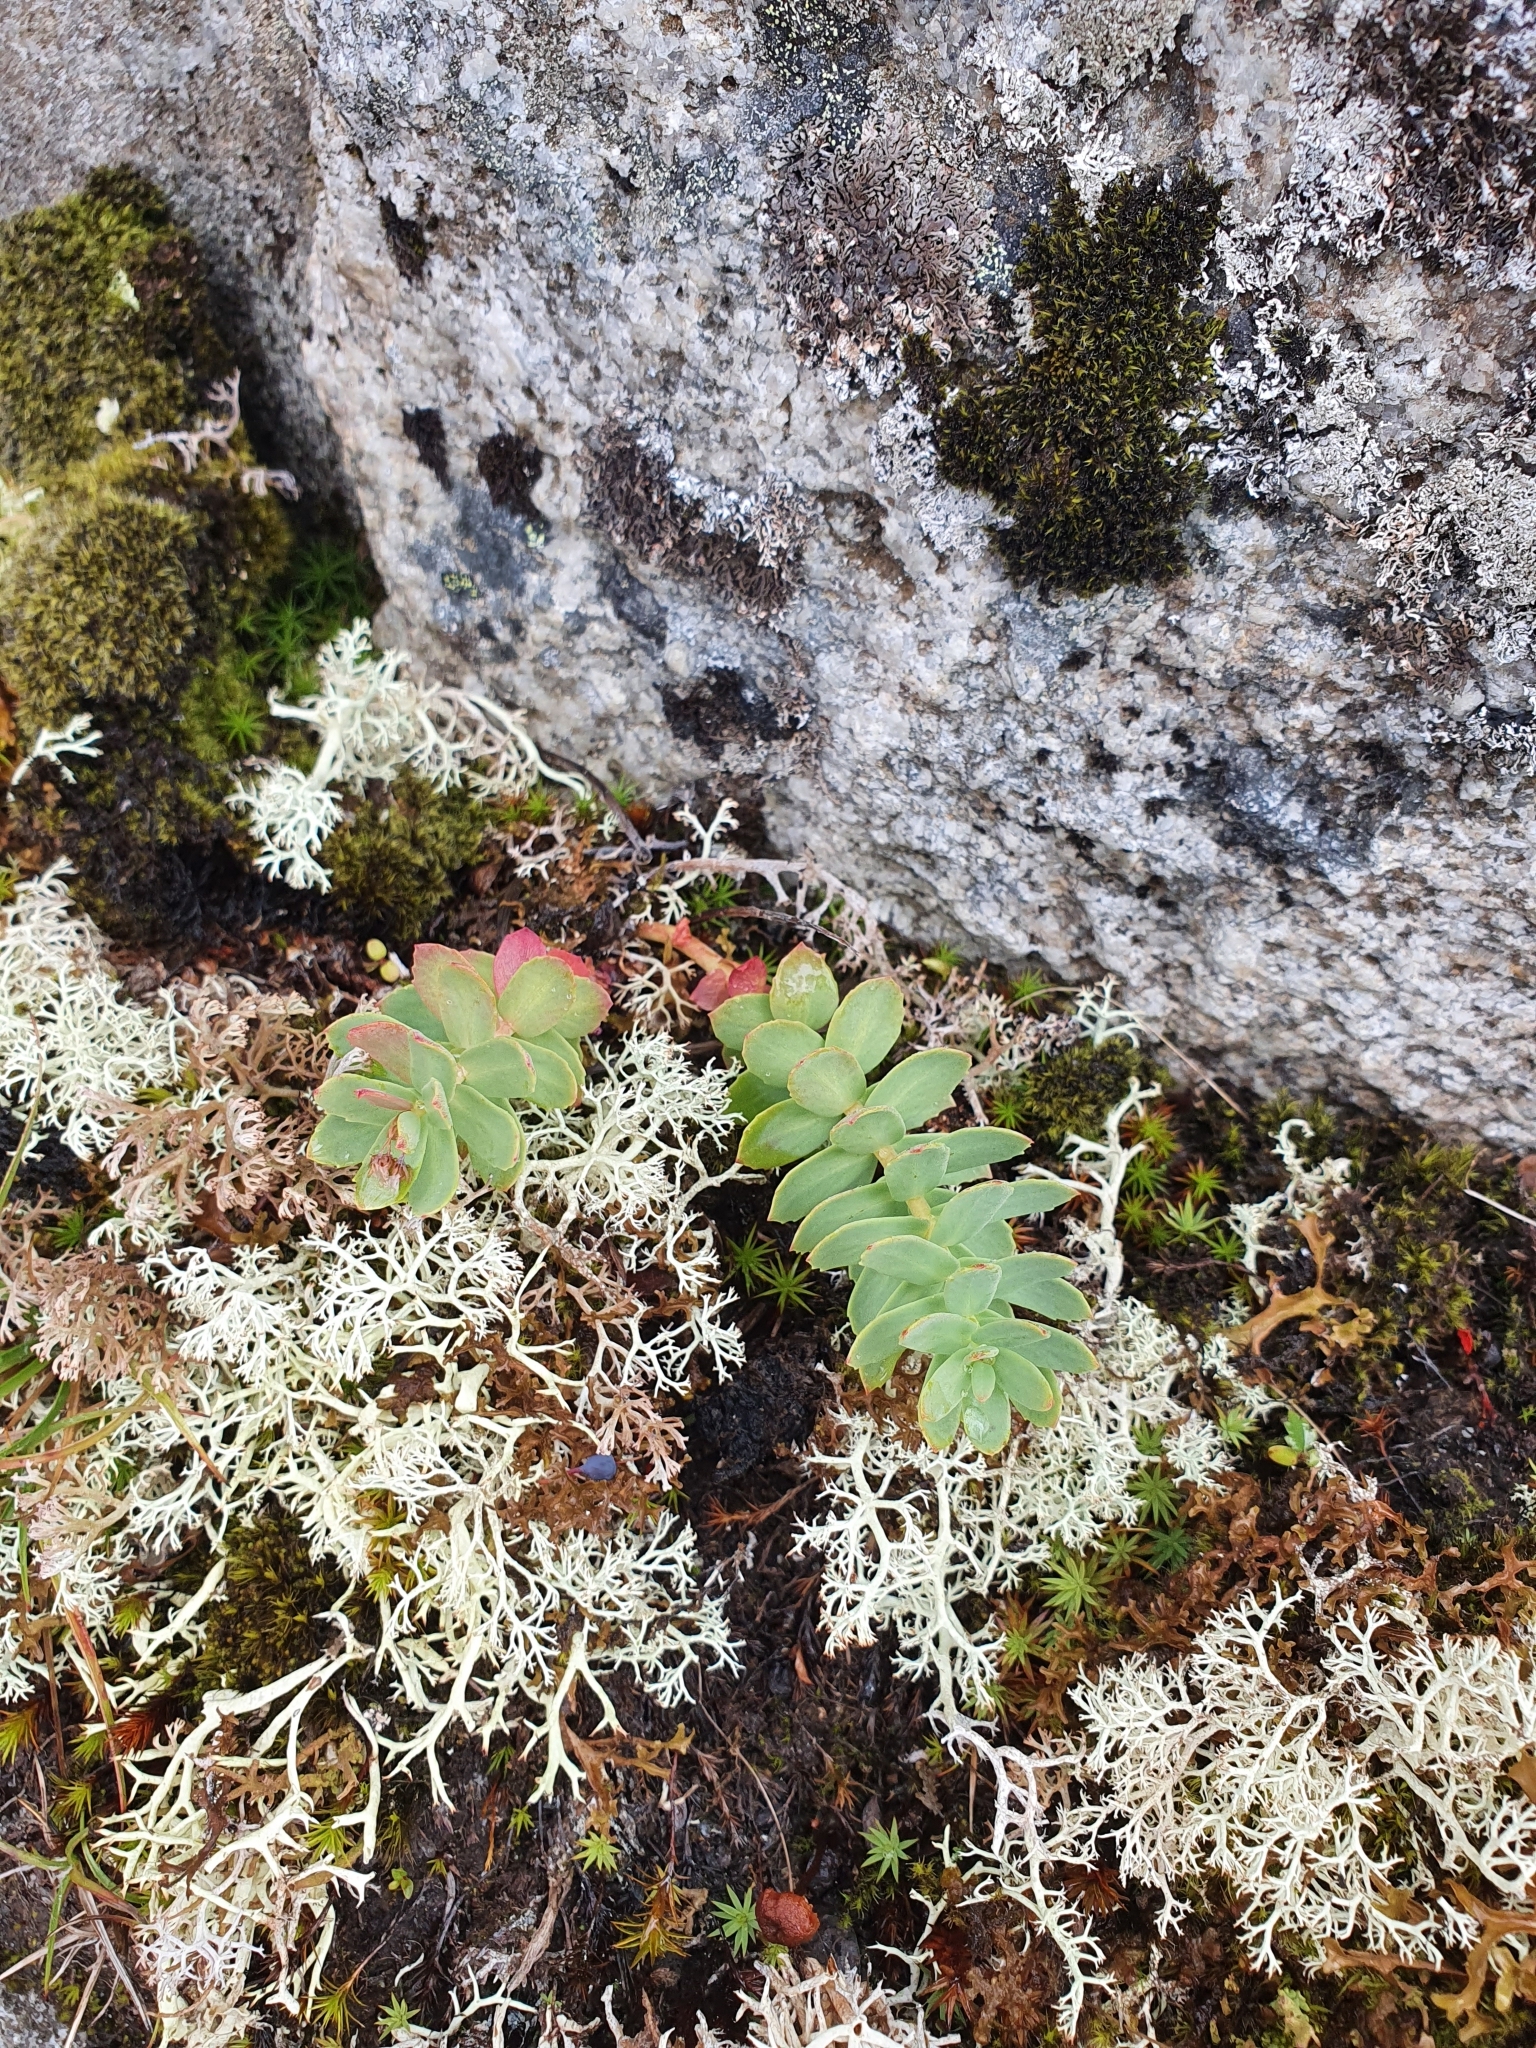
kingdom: Plantae
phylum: Tracheophyta
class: Magnoliopsida
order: Saxifragales
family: Crassulaceae
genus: Rhodiola
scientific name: Rhodiola rosea
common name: Roseroot
